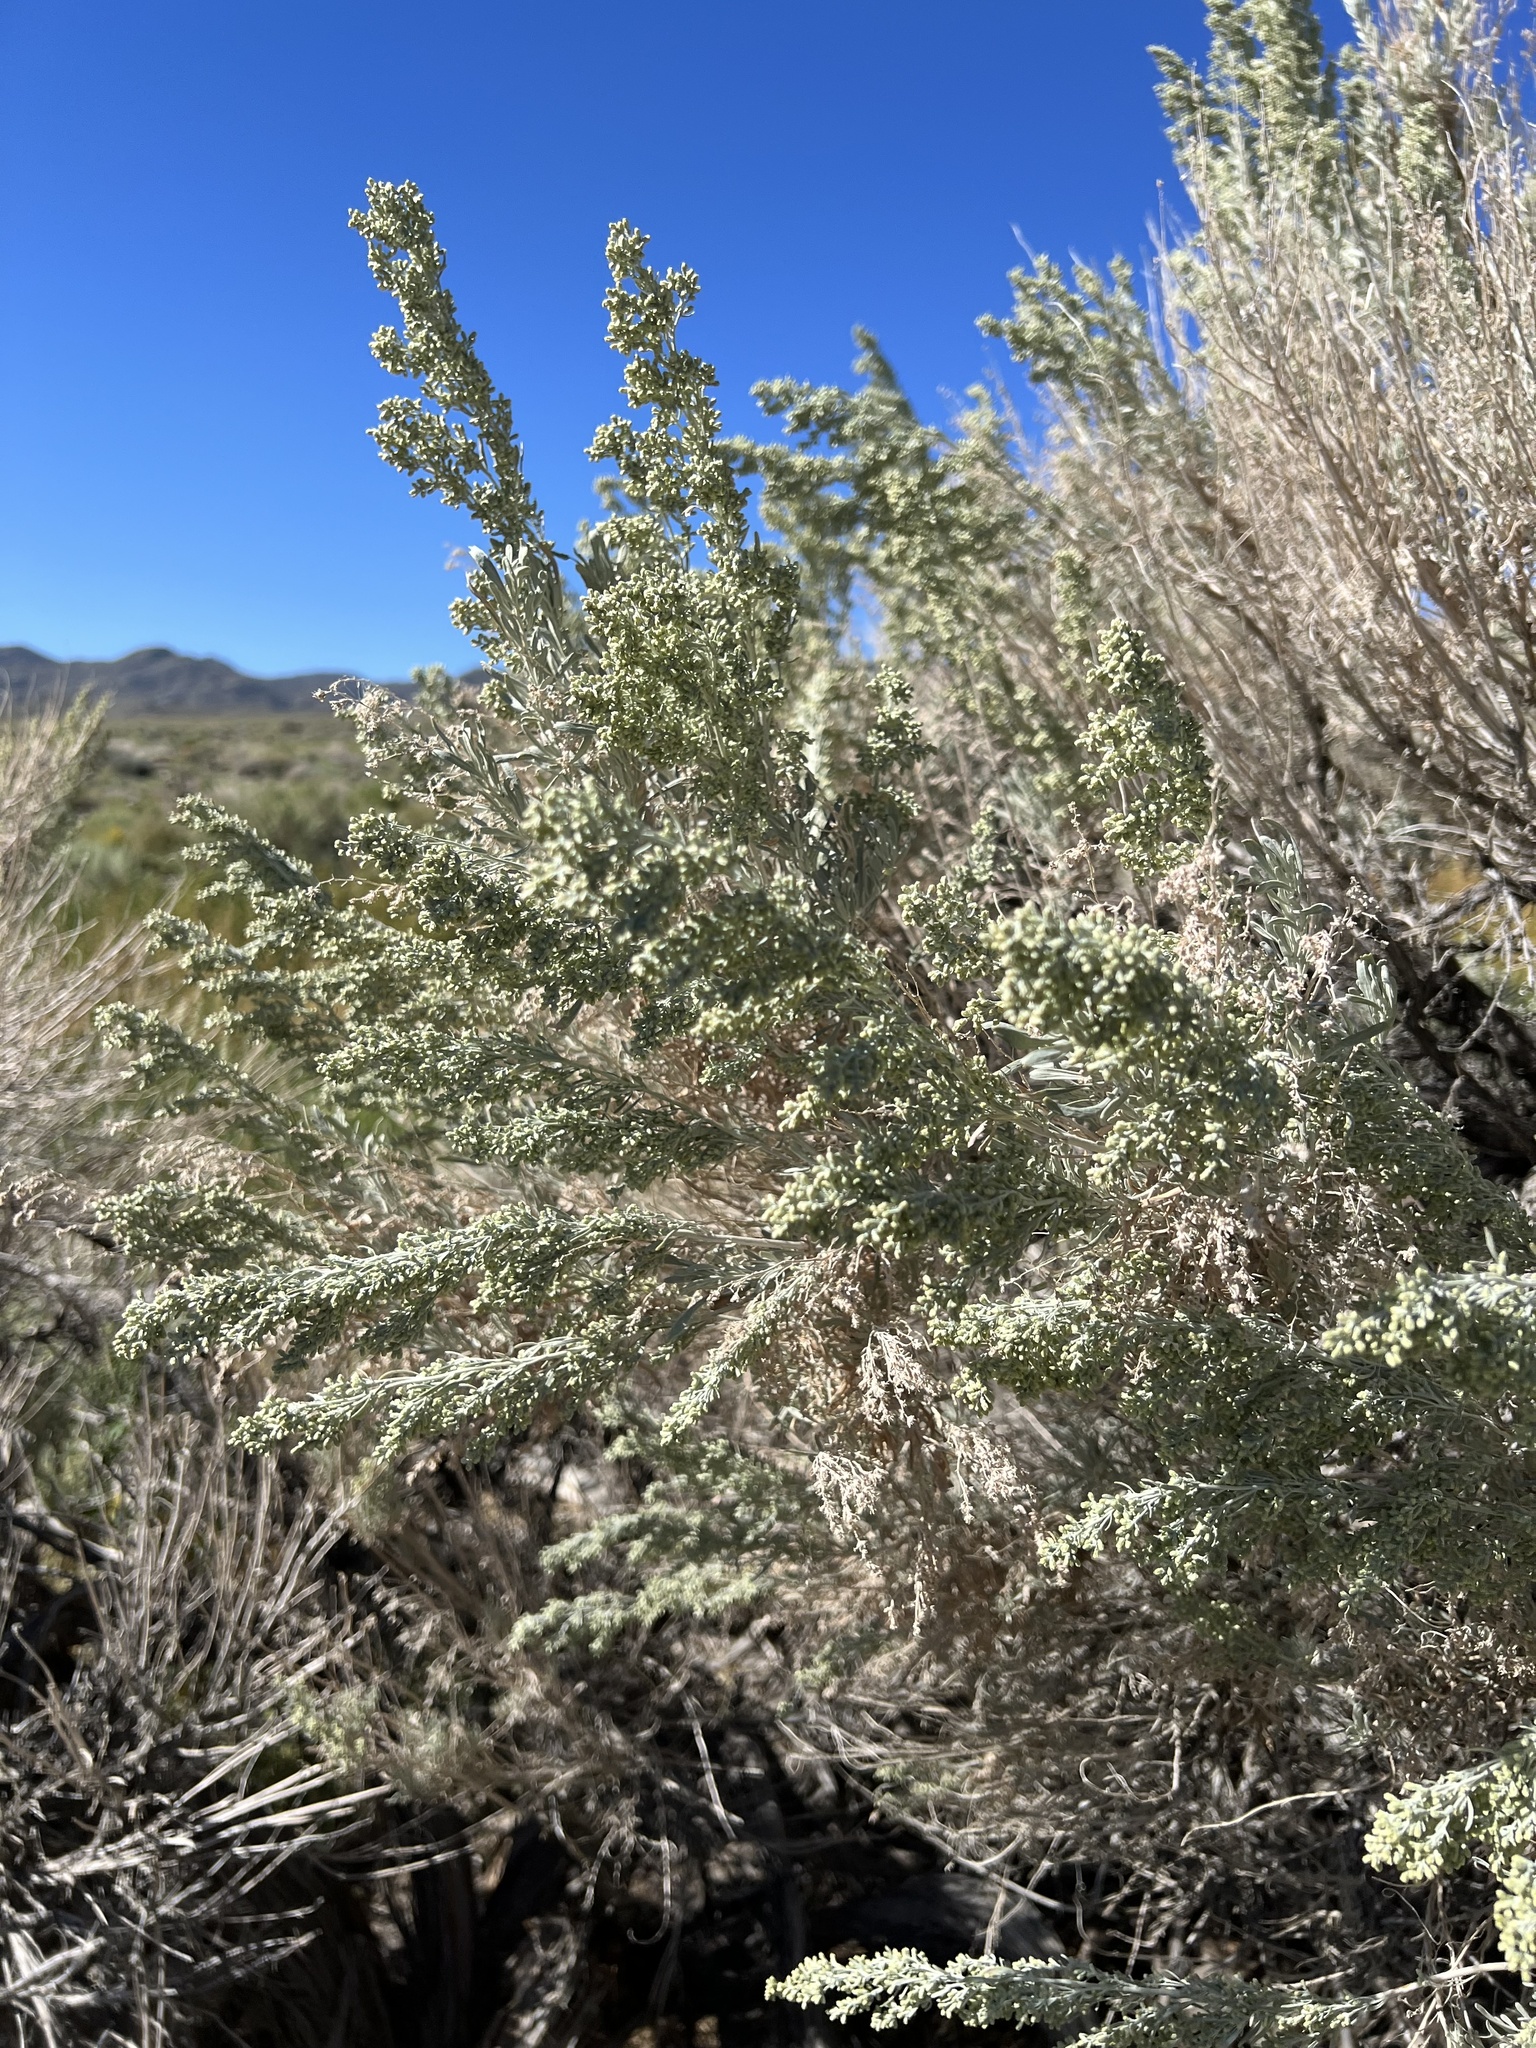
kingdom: Plantae
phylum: Tracheophyta
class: Magnoliopsida
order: Asterales
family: Asteraceae
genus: Artemisia
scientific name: Artemisia tridentata
